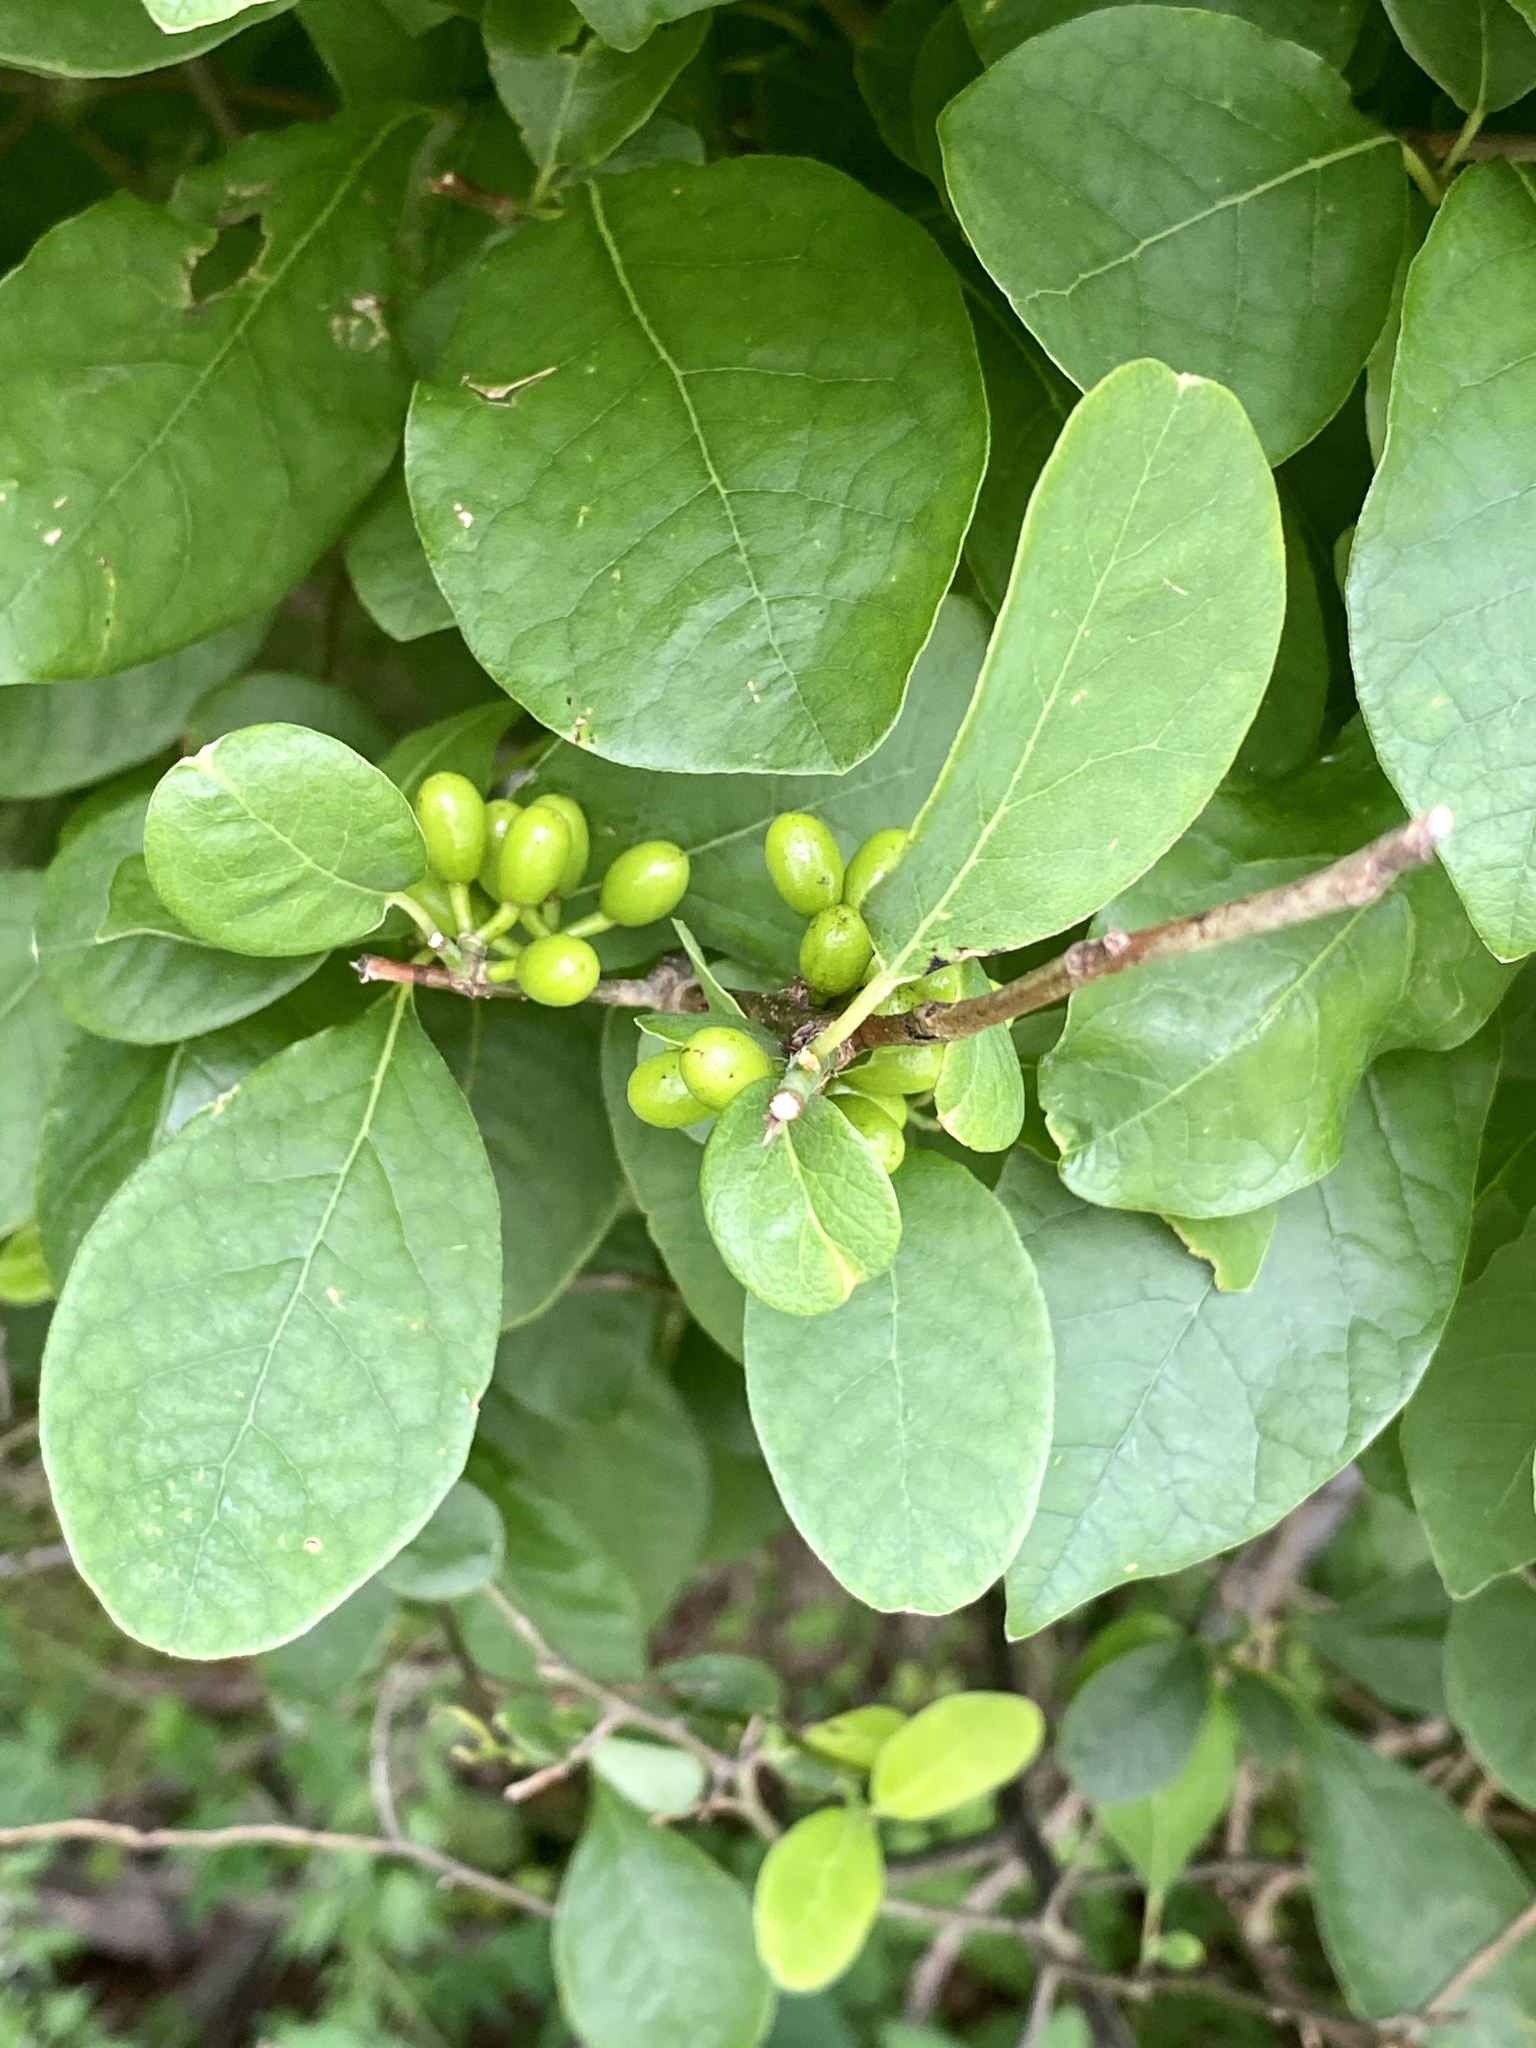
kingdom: Plantae
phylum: Tracheophyta
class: Magnoliopsida
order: Laurales
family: Lauraceae
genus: Lindera
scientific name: Lindera benzoin
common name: Spicebush
